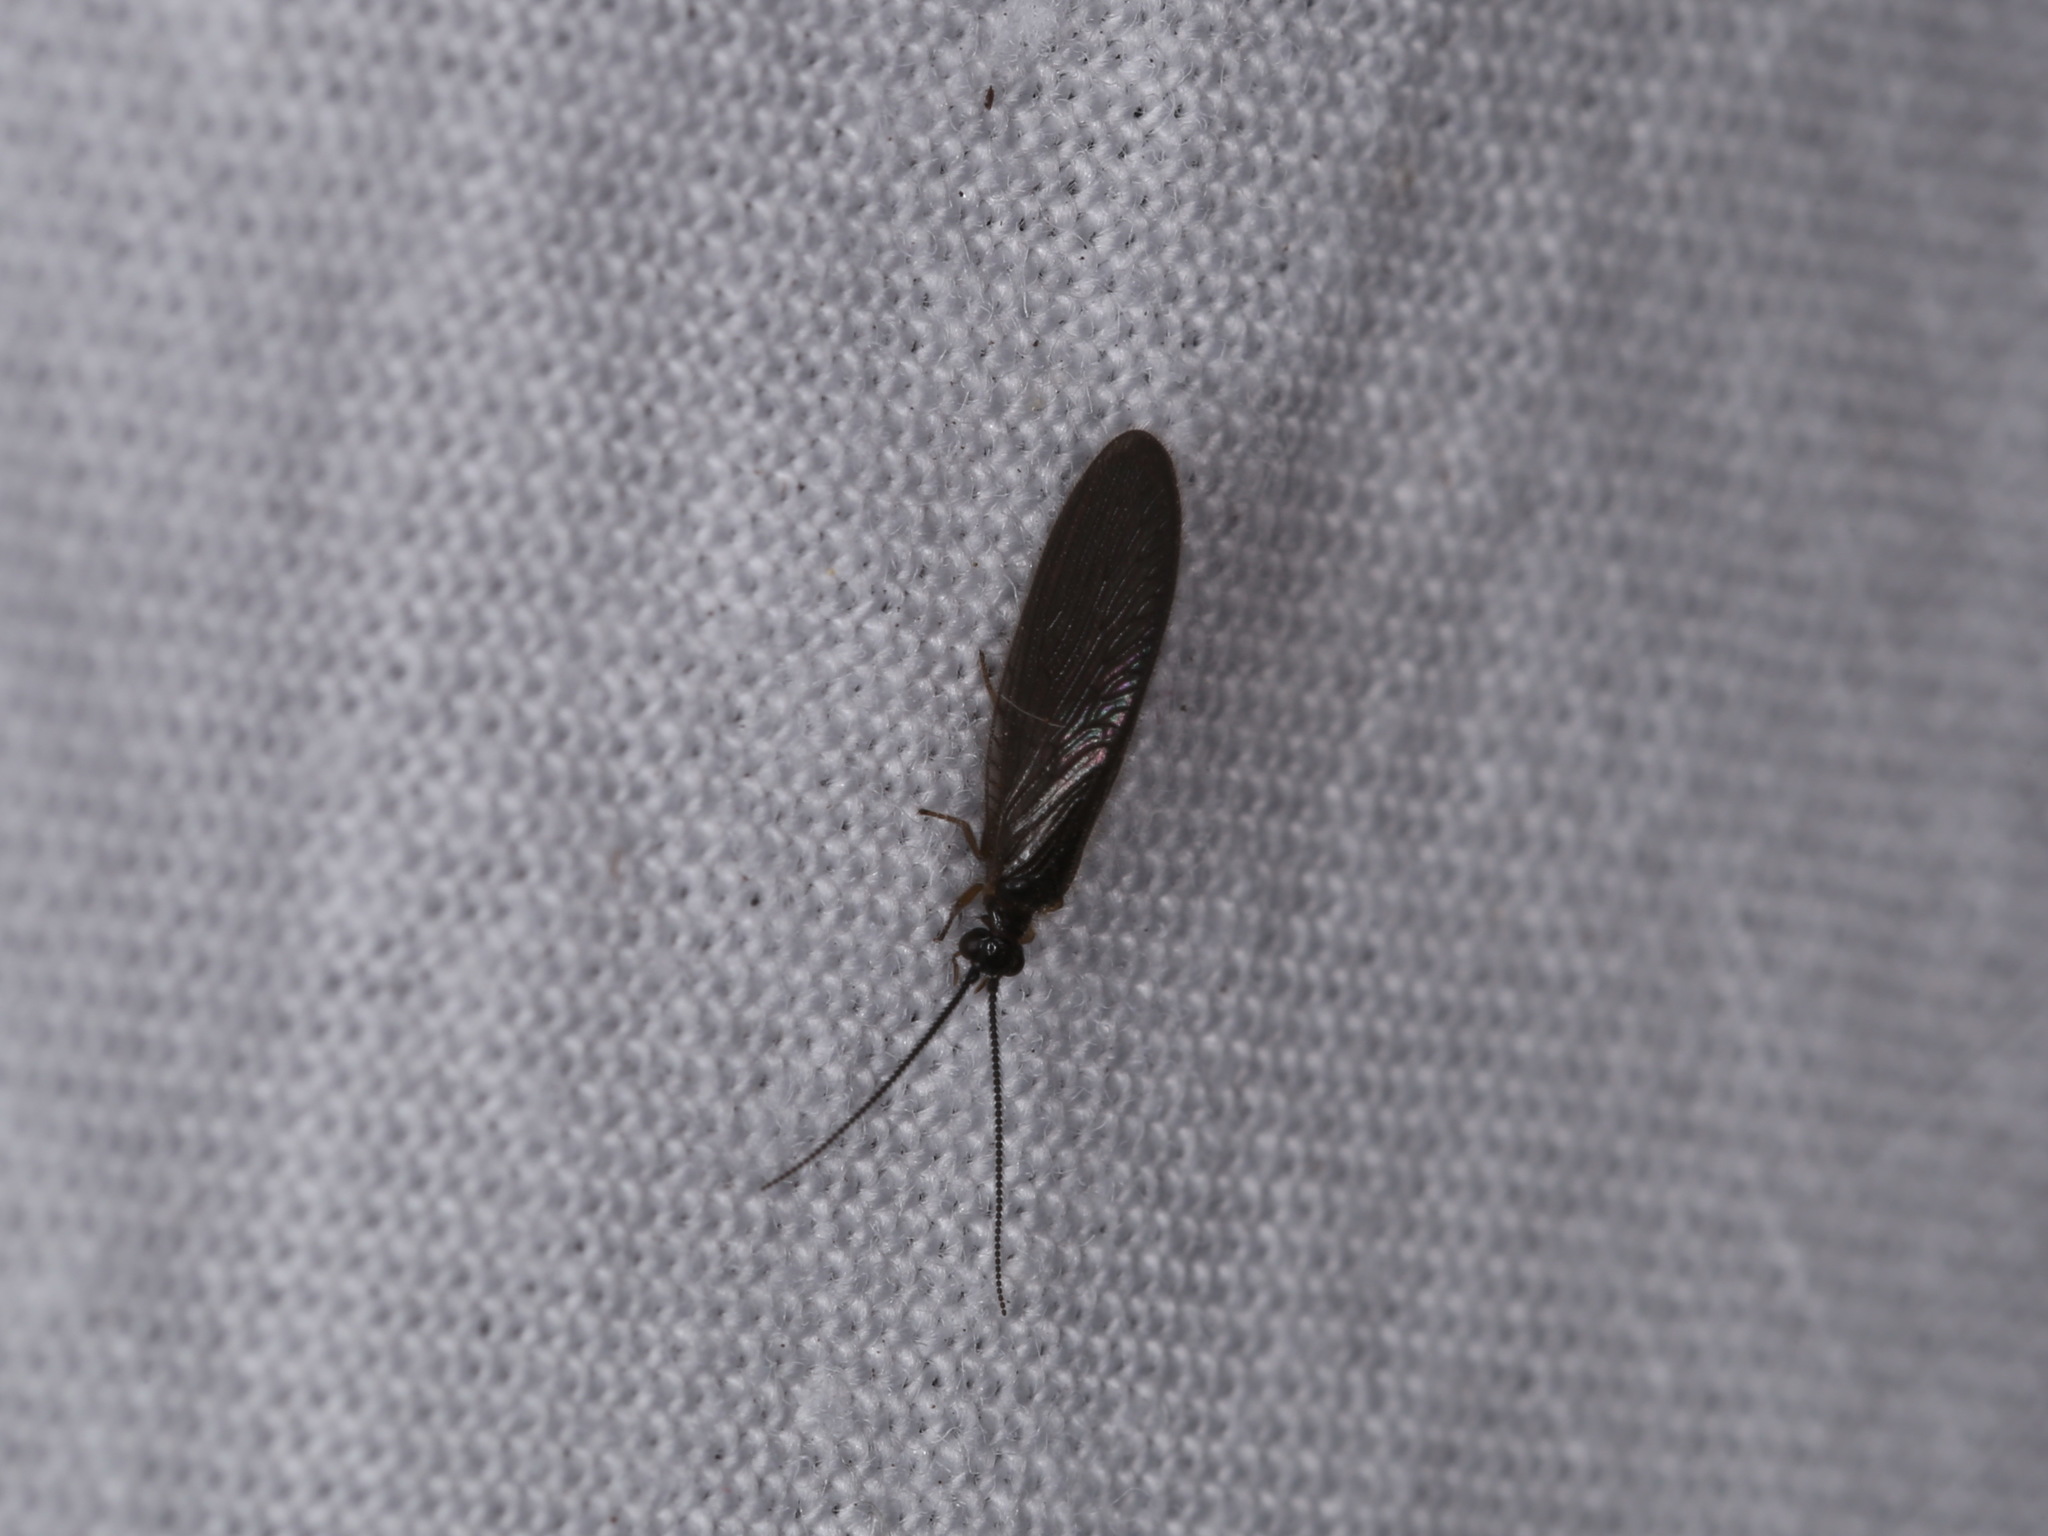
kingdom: Animalia
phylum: Arthropoda
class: Insecta
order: Neuroptera
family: Sisyridae
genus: Sisyra
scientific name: Sisyra nigra
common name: Black spongillafly
